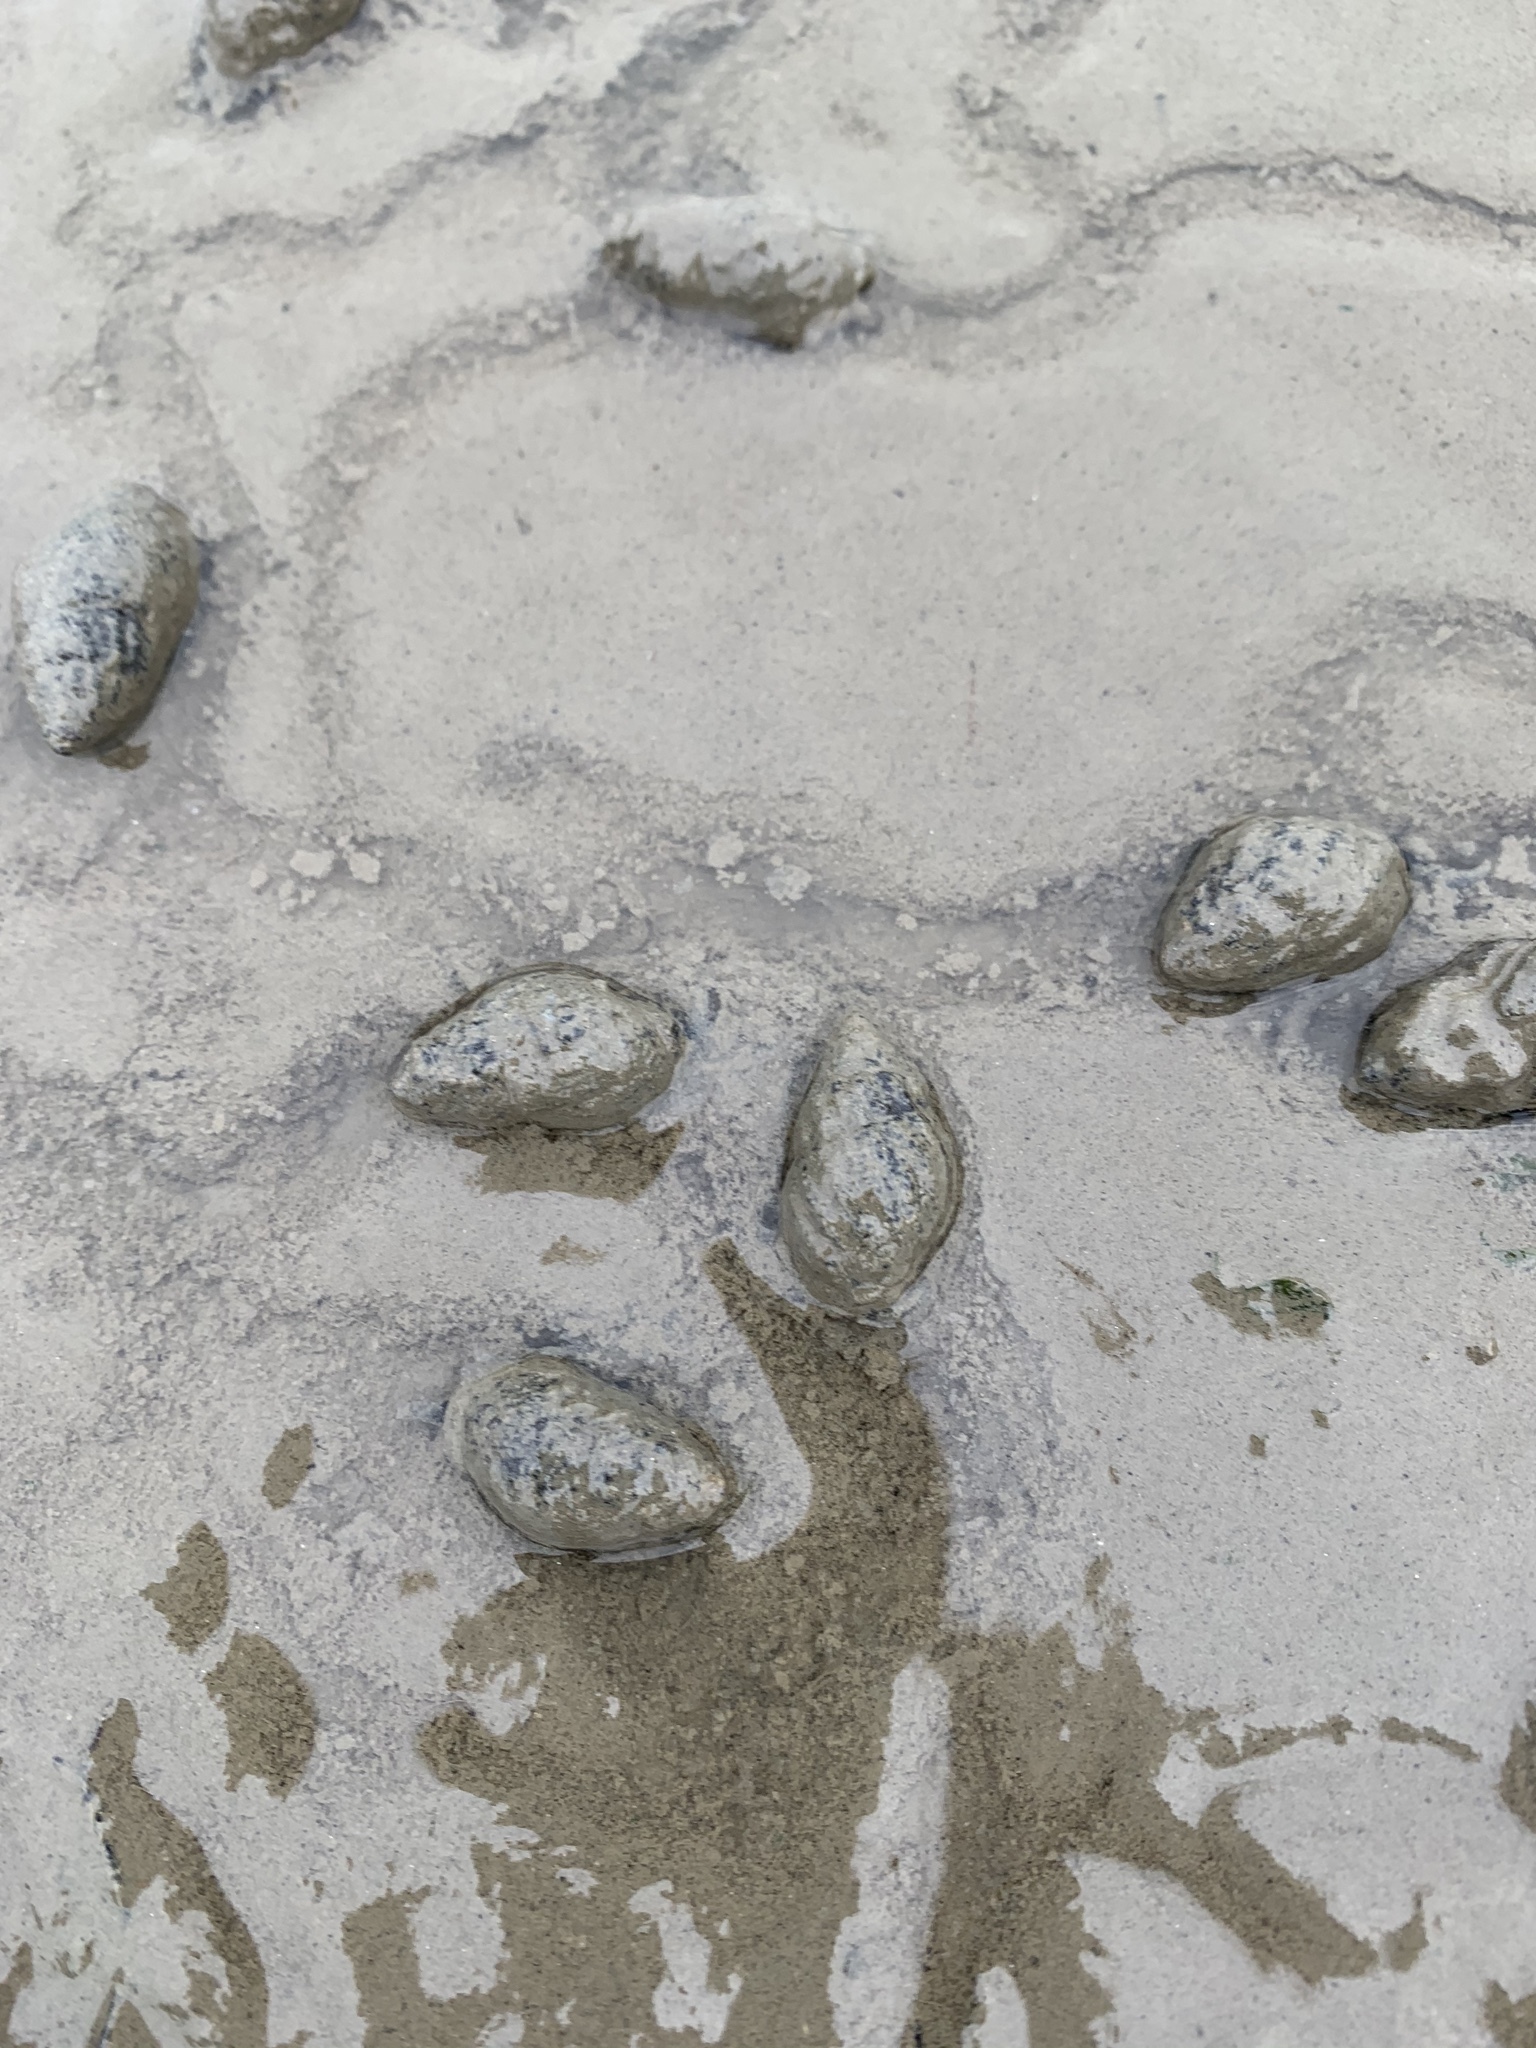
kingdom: Animalia
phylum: Mollusca
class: Gastropoda
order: Neogastropoda
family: Nassariidae
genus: Ilyanassa
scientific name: Ilyanassa obsoleta
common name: Eastern mudsnail
